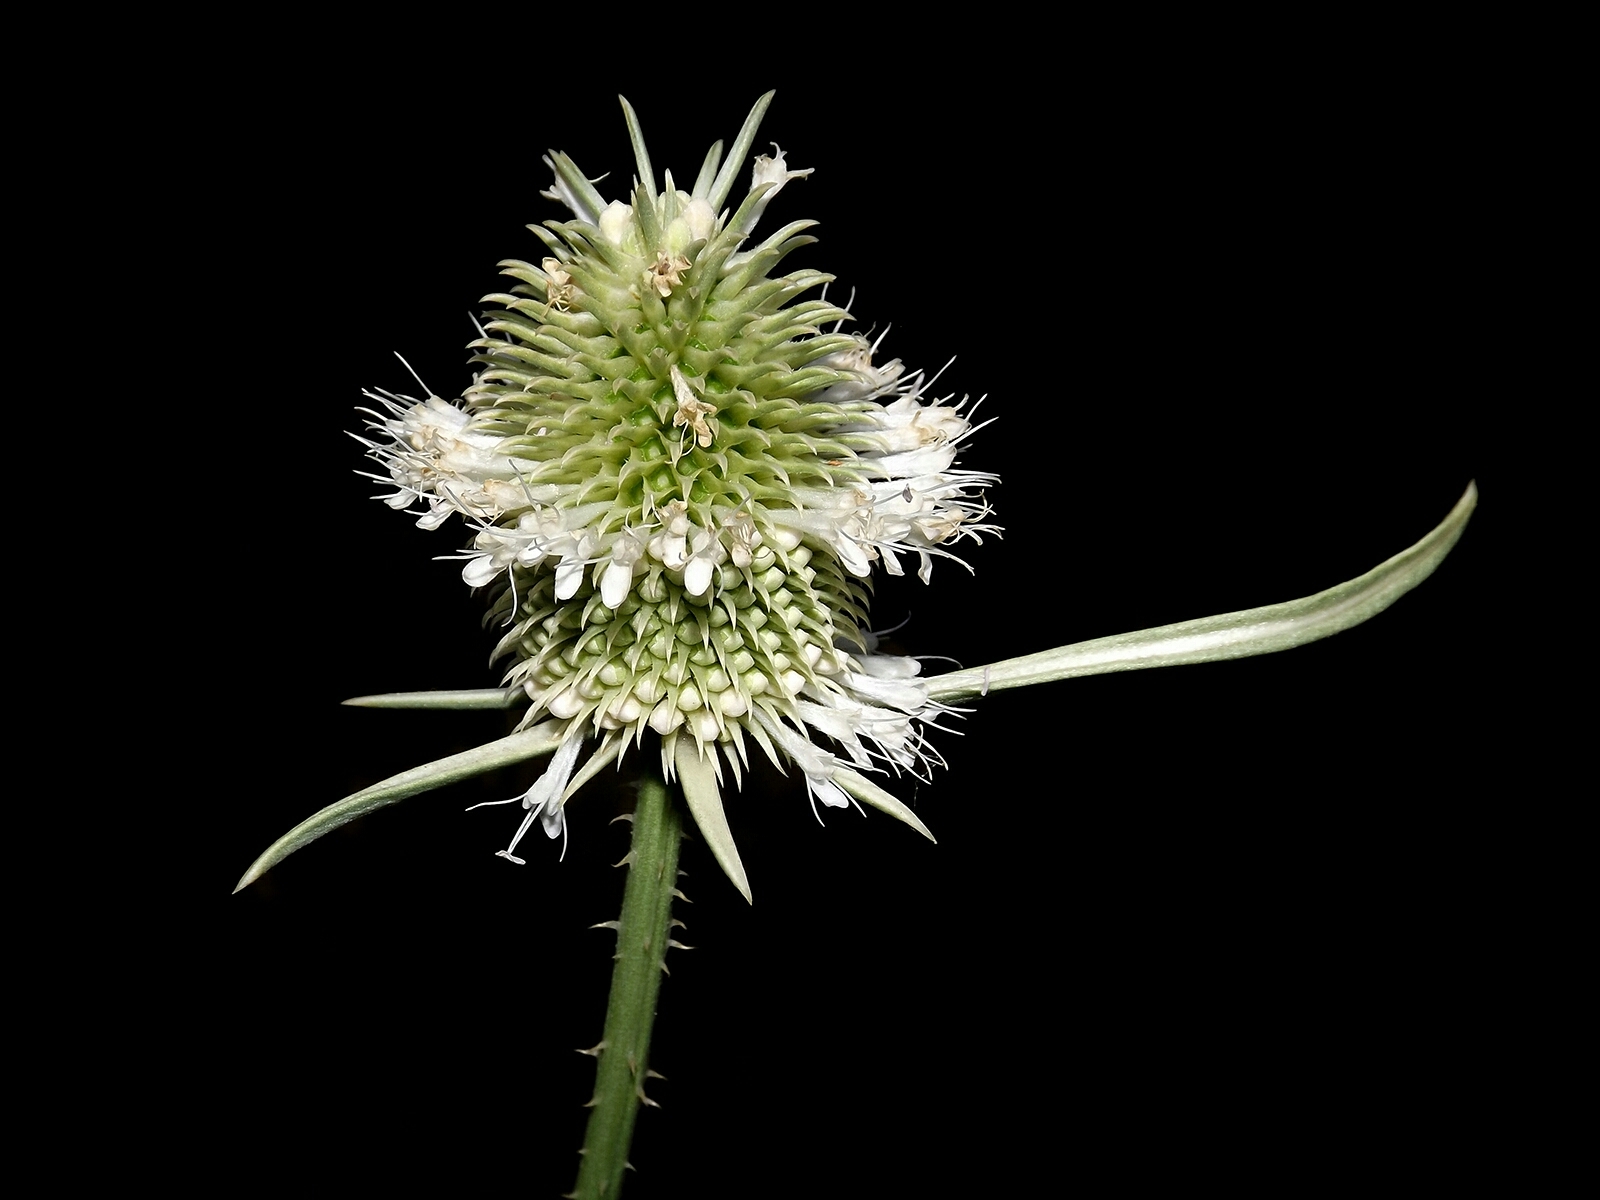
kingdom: Plantae
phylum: Tracheophyta
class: Magnoliopsida
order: Dipsacales
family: Caprifoliaceae
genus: Dipsacus
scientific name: Dipsacus sativus
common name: Fuller's teasel
